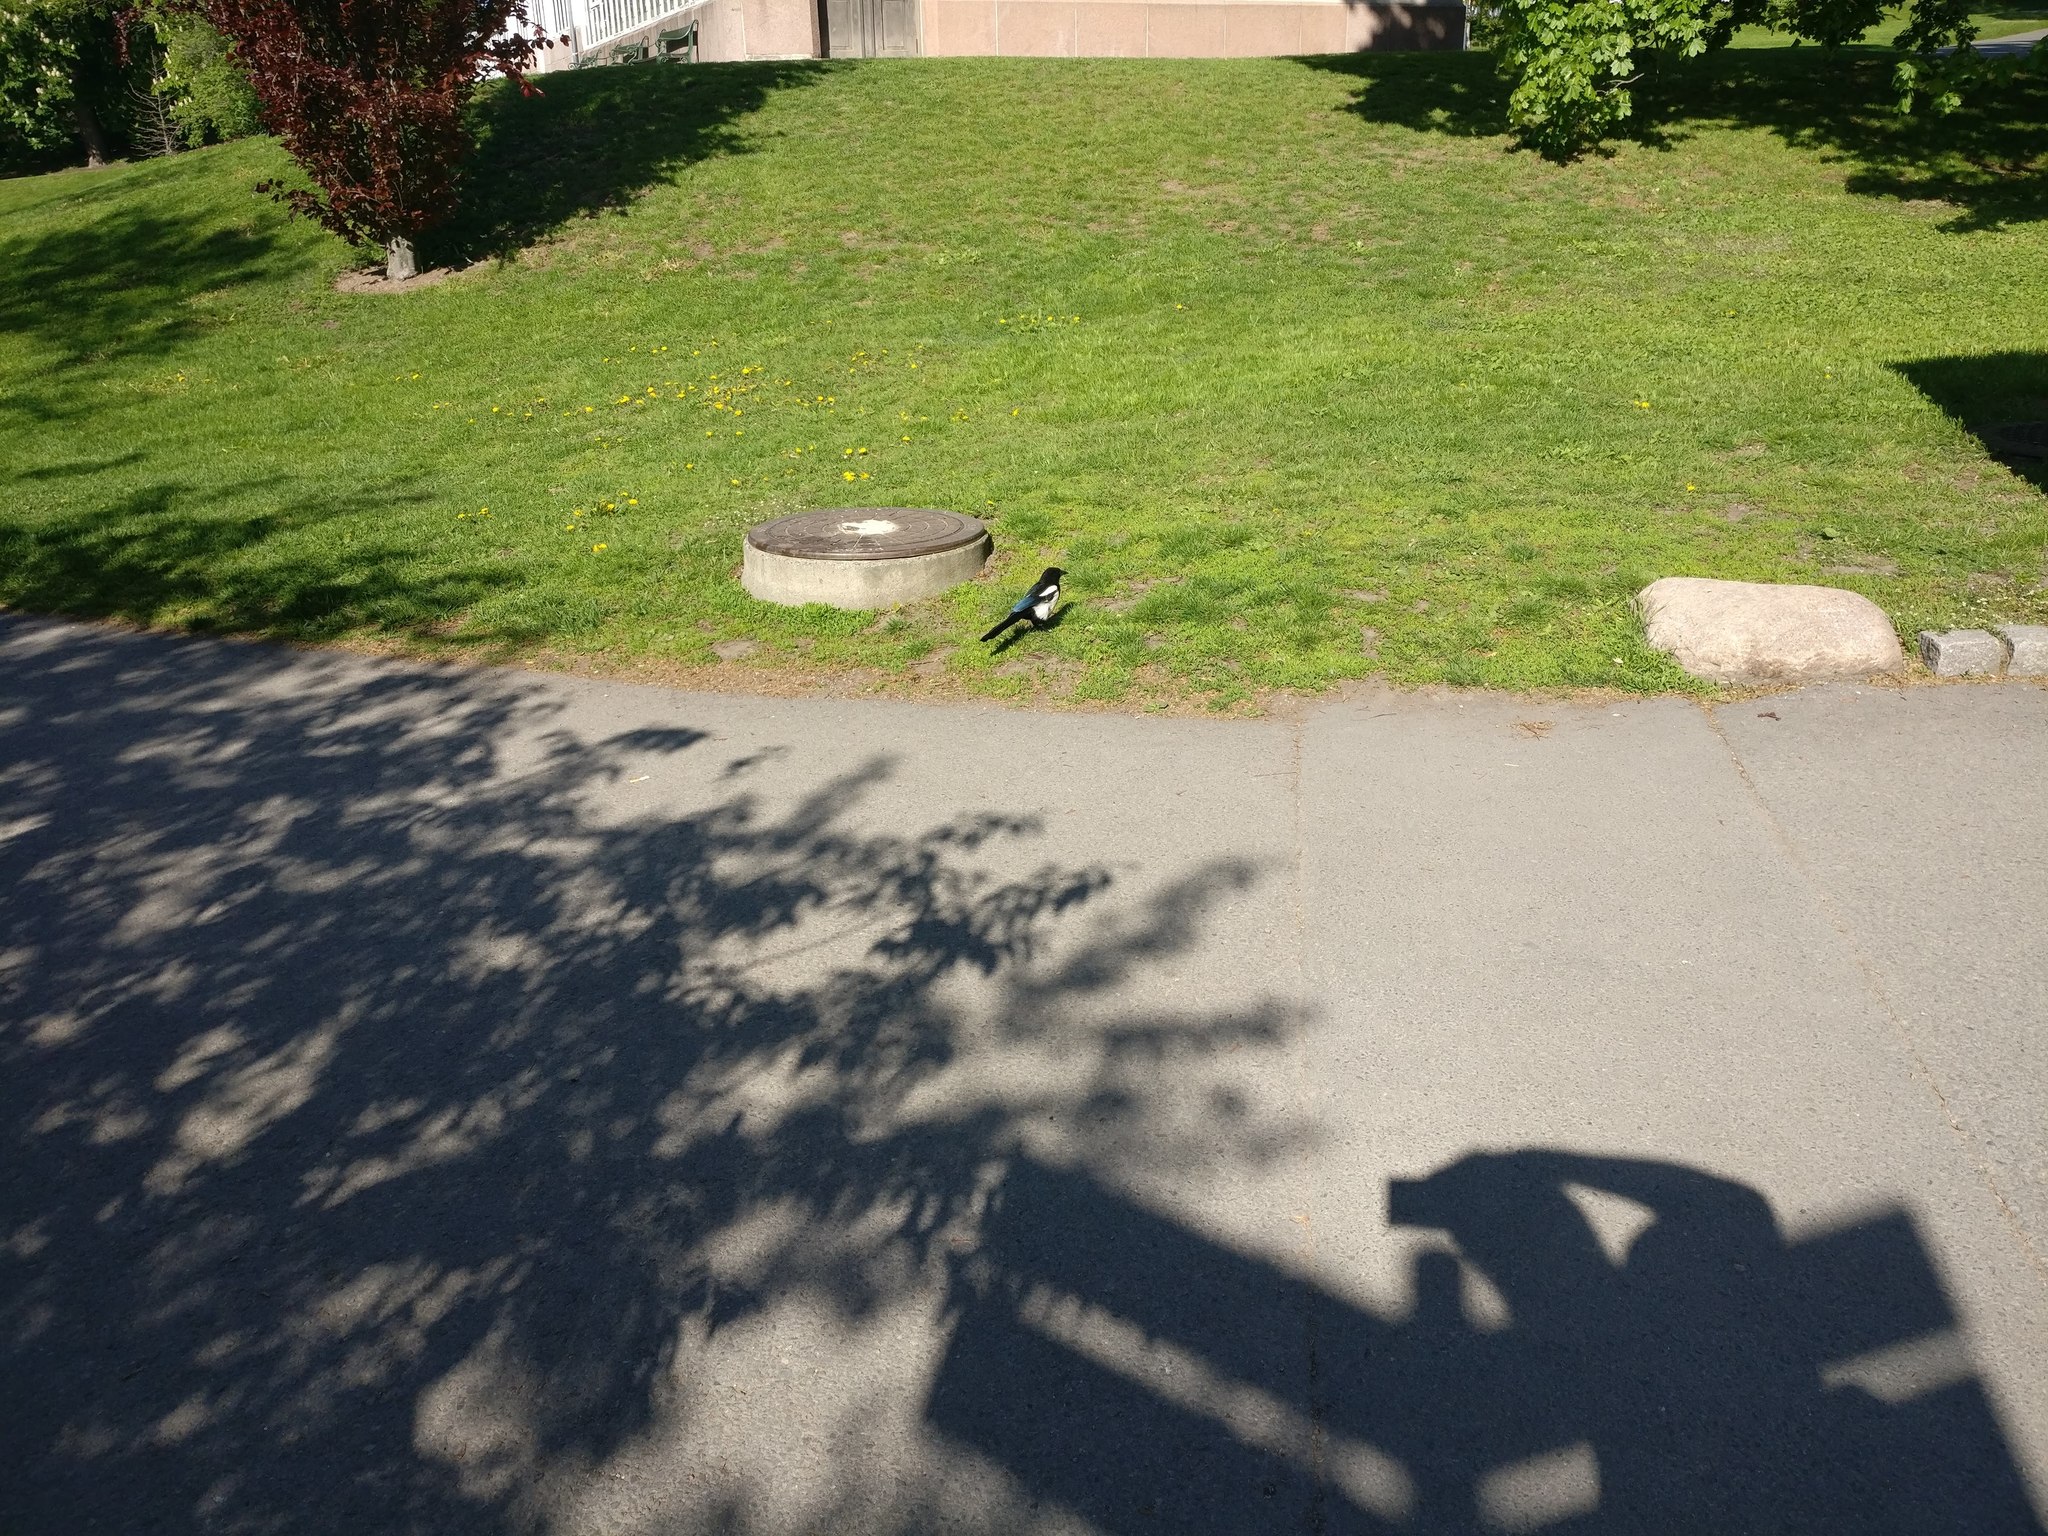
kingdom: Animalia
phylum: Chordata
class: Aves
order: Passeriformes
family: Corvidae
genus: Pica
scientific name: Pica pica
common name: Eurasian magpie
